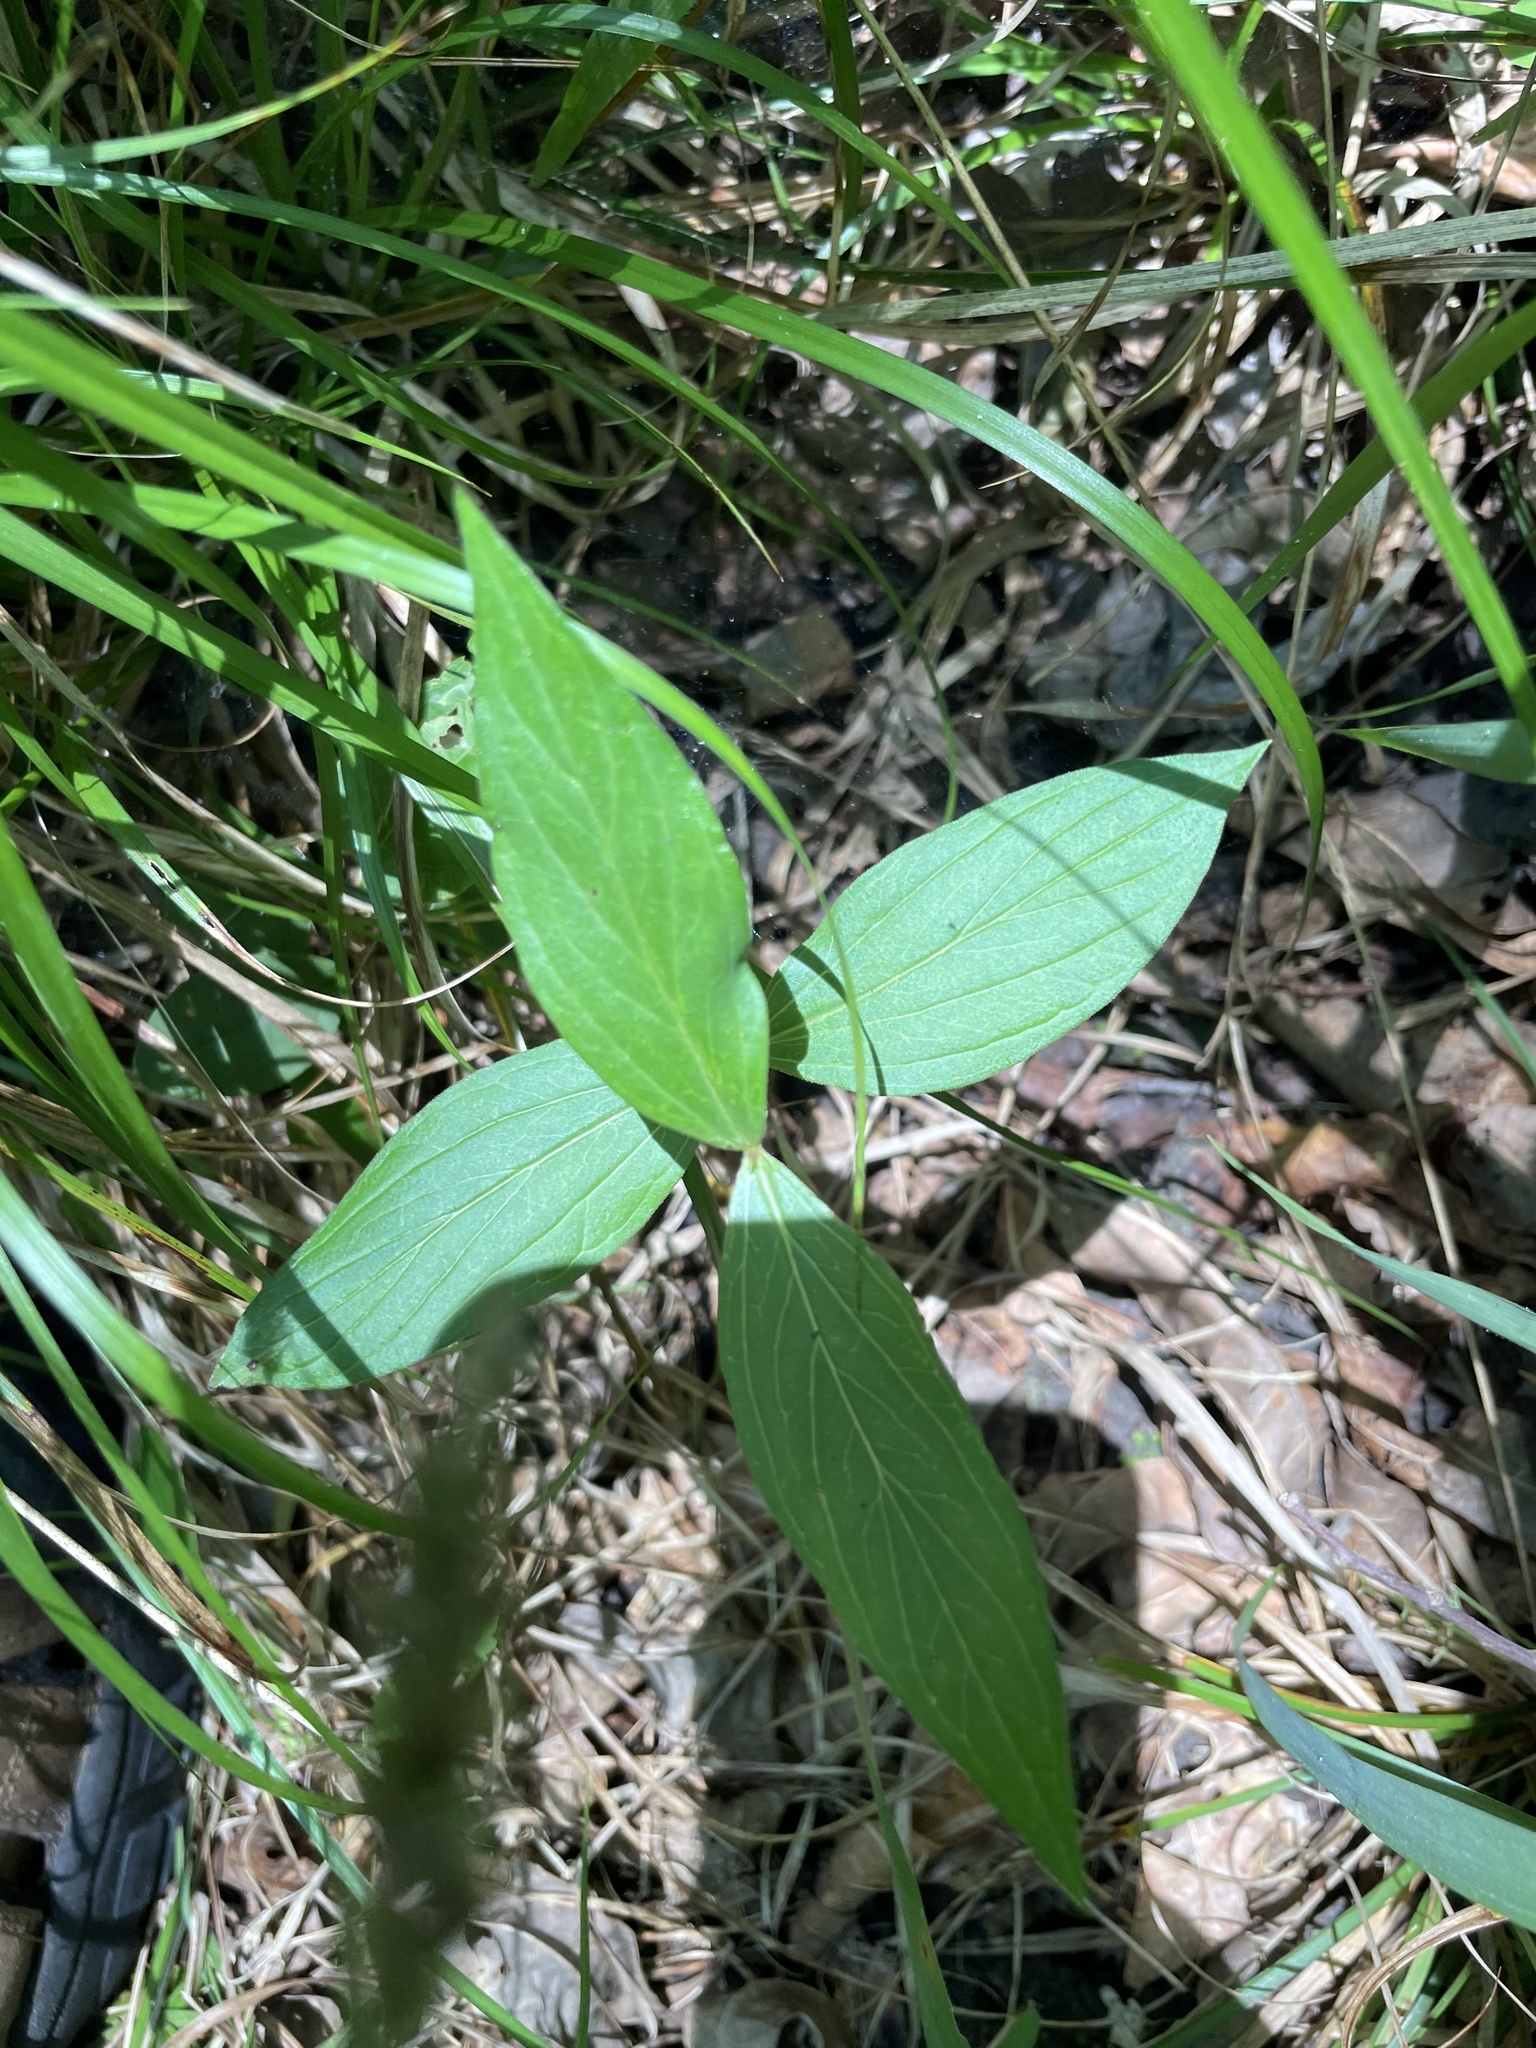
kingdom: Plantae
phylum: Tracheophyta
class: Magnoliopsida
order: Gentianales
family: Loganiaceae
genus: Spigelia
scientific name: Spigelia marilandica
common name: Indian-pink
